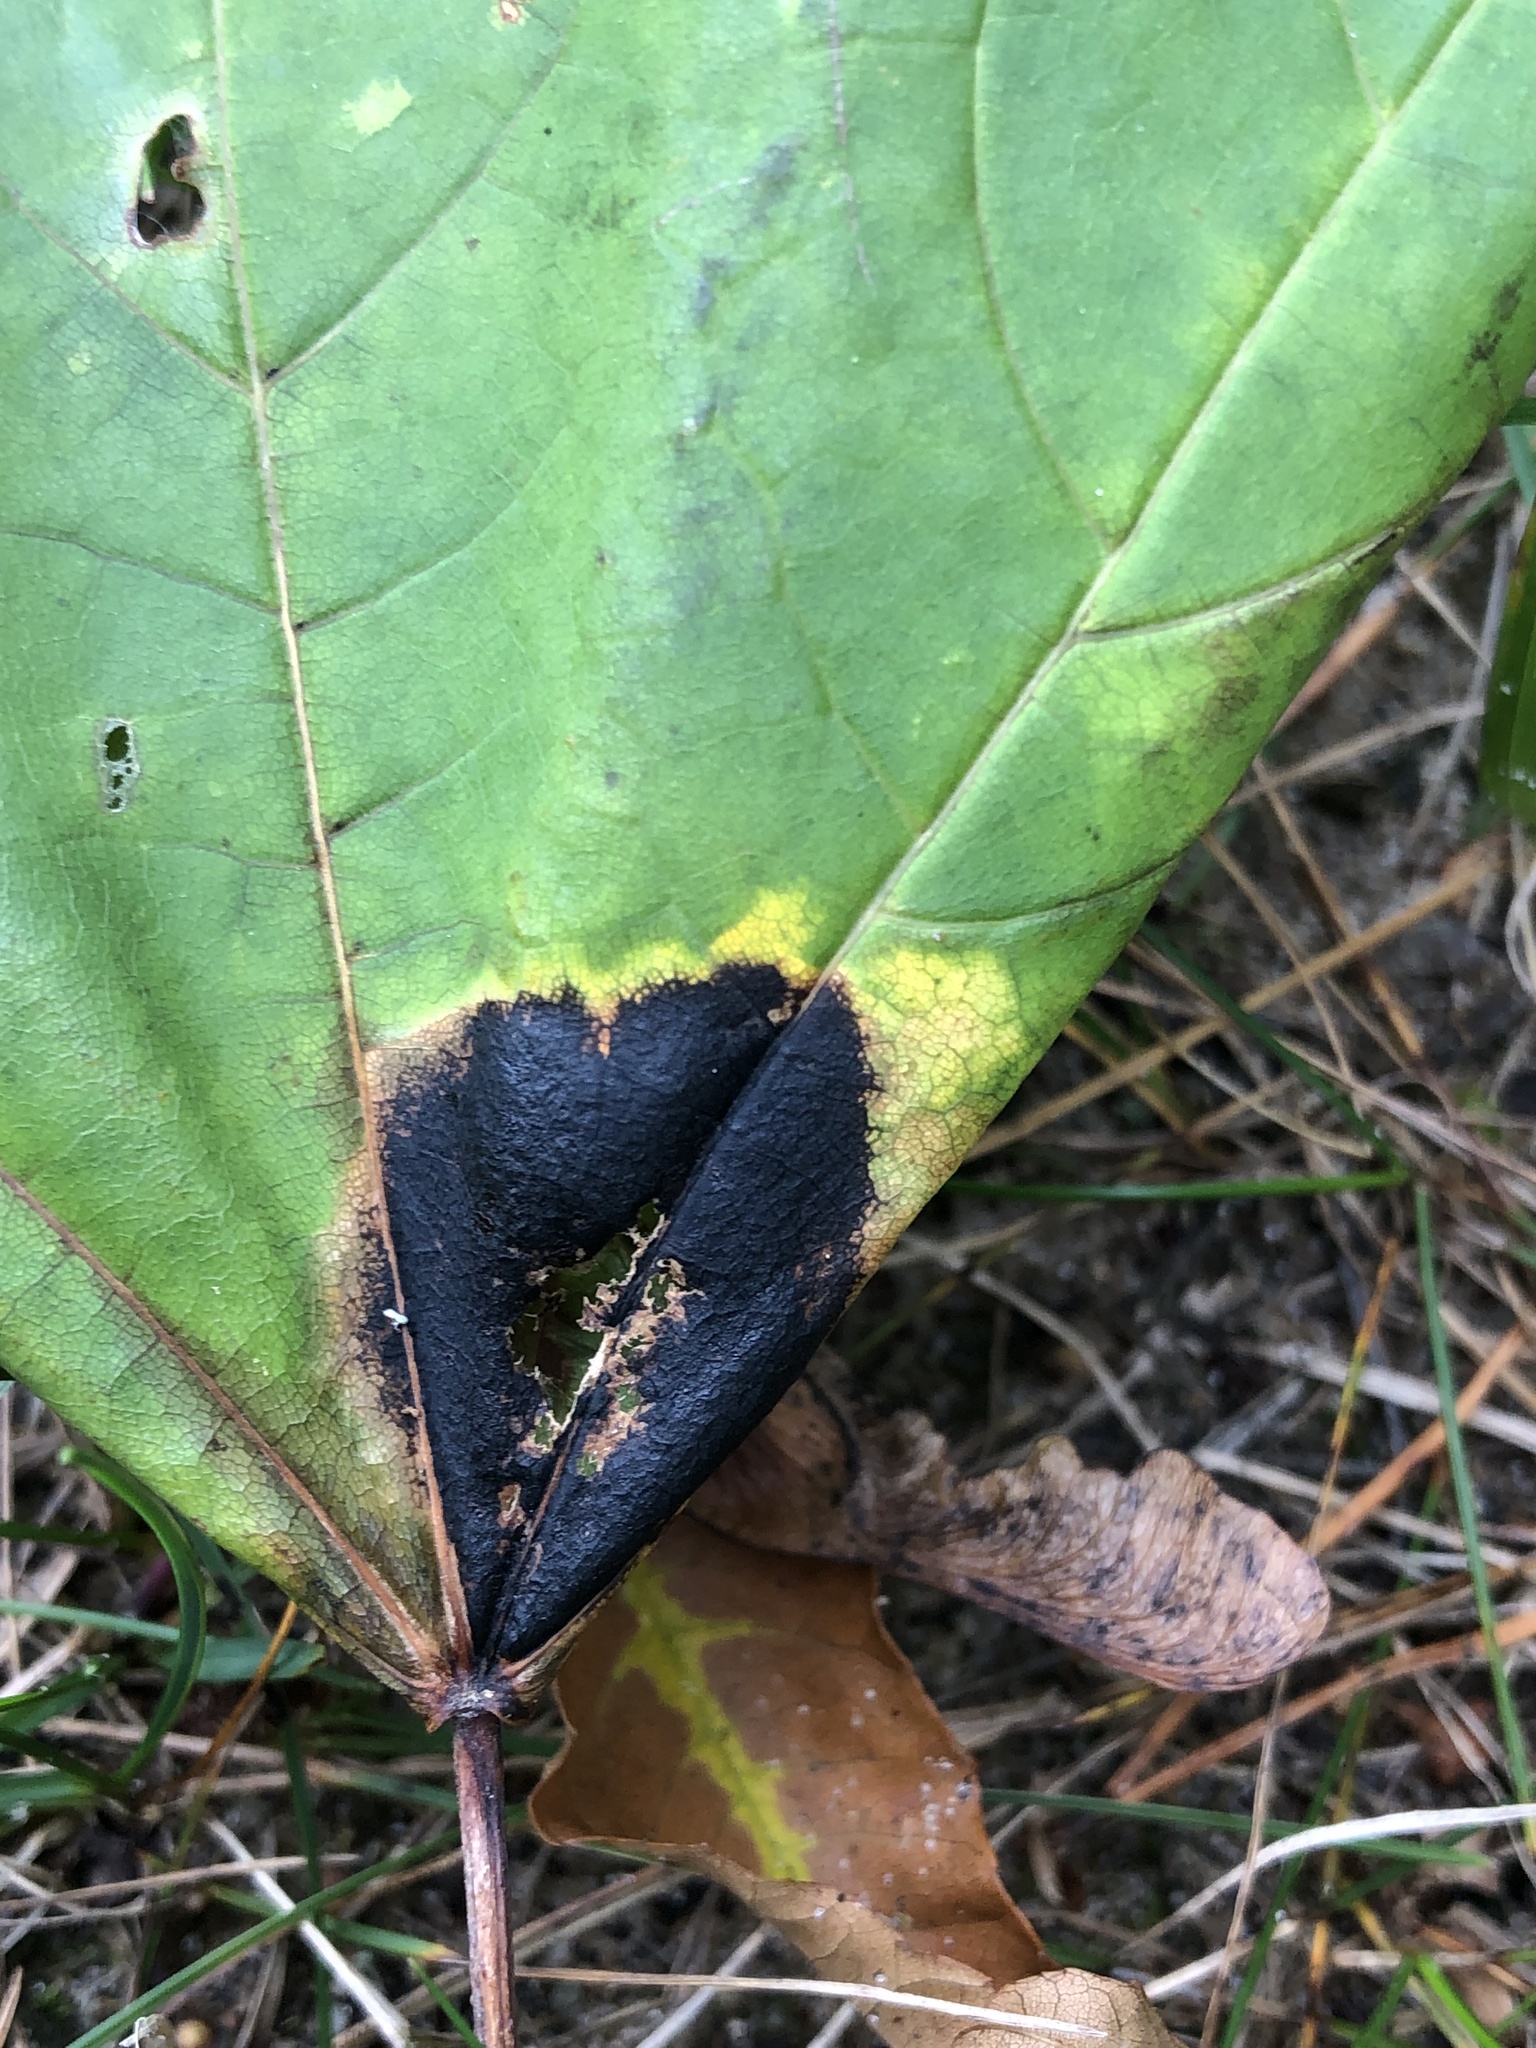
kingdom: Fungi
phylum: Ascomycota
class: Leotiomycetes
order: Rhytismatales
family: Rhytismataceae
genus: Rhytisma
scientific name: Rhytisma acerinum
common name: European tar spot
